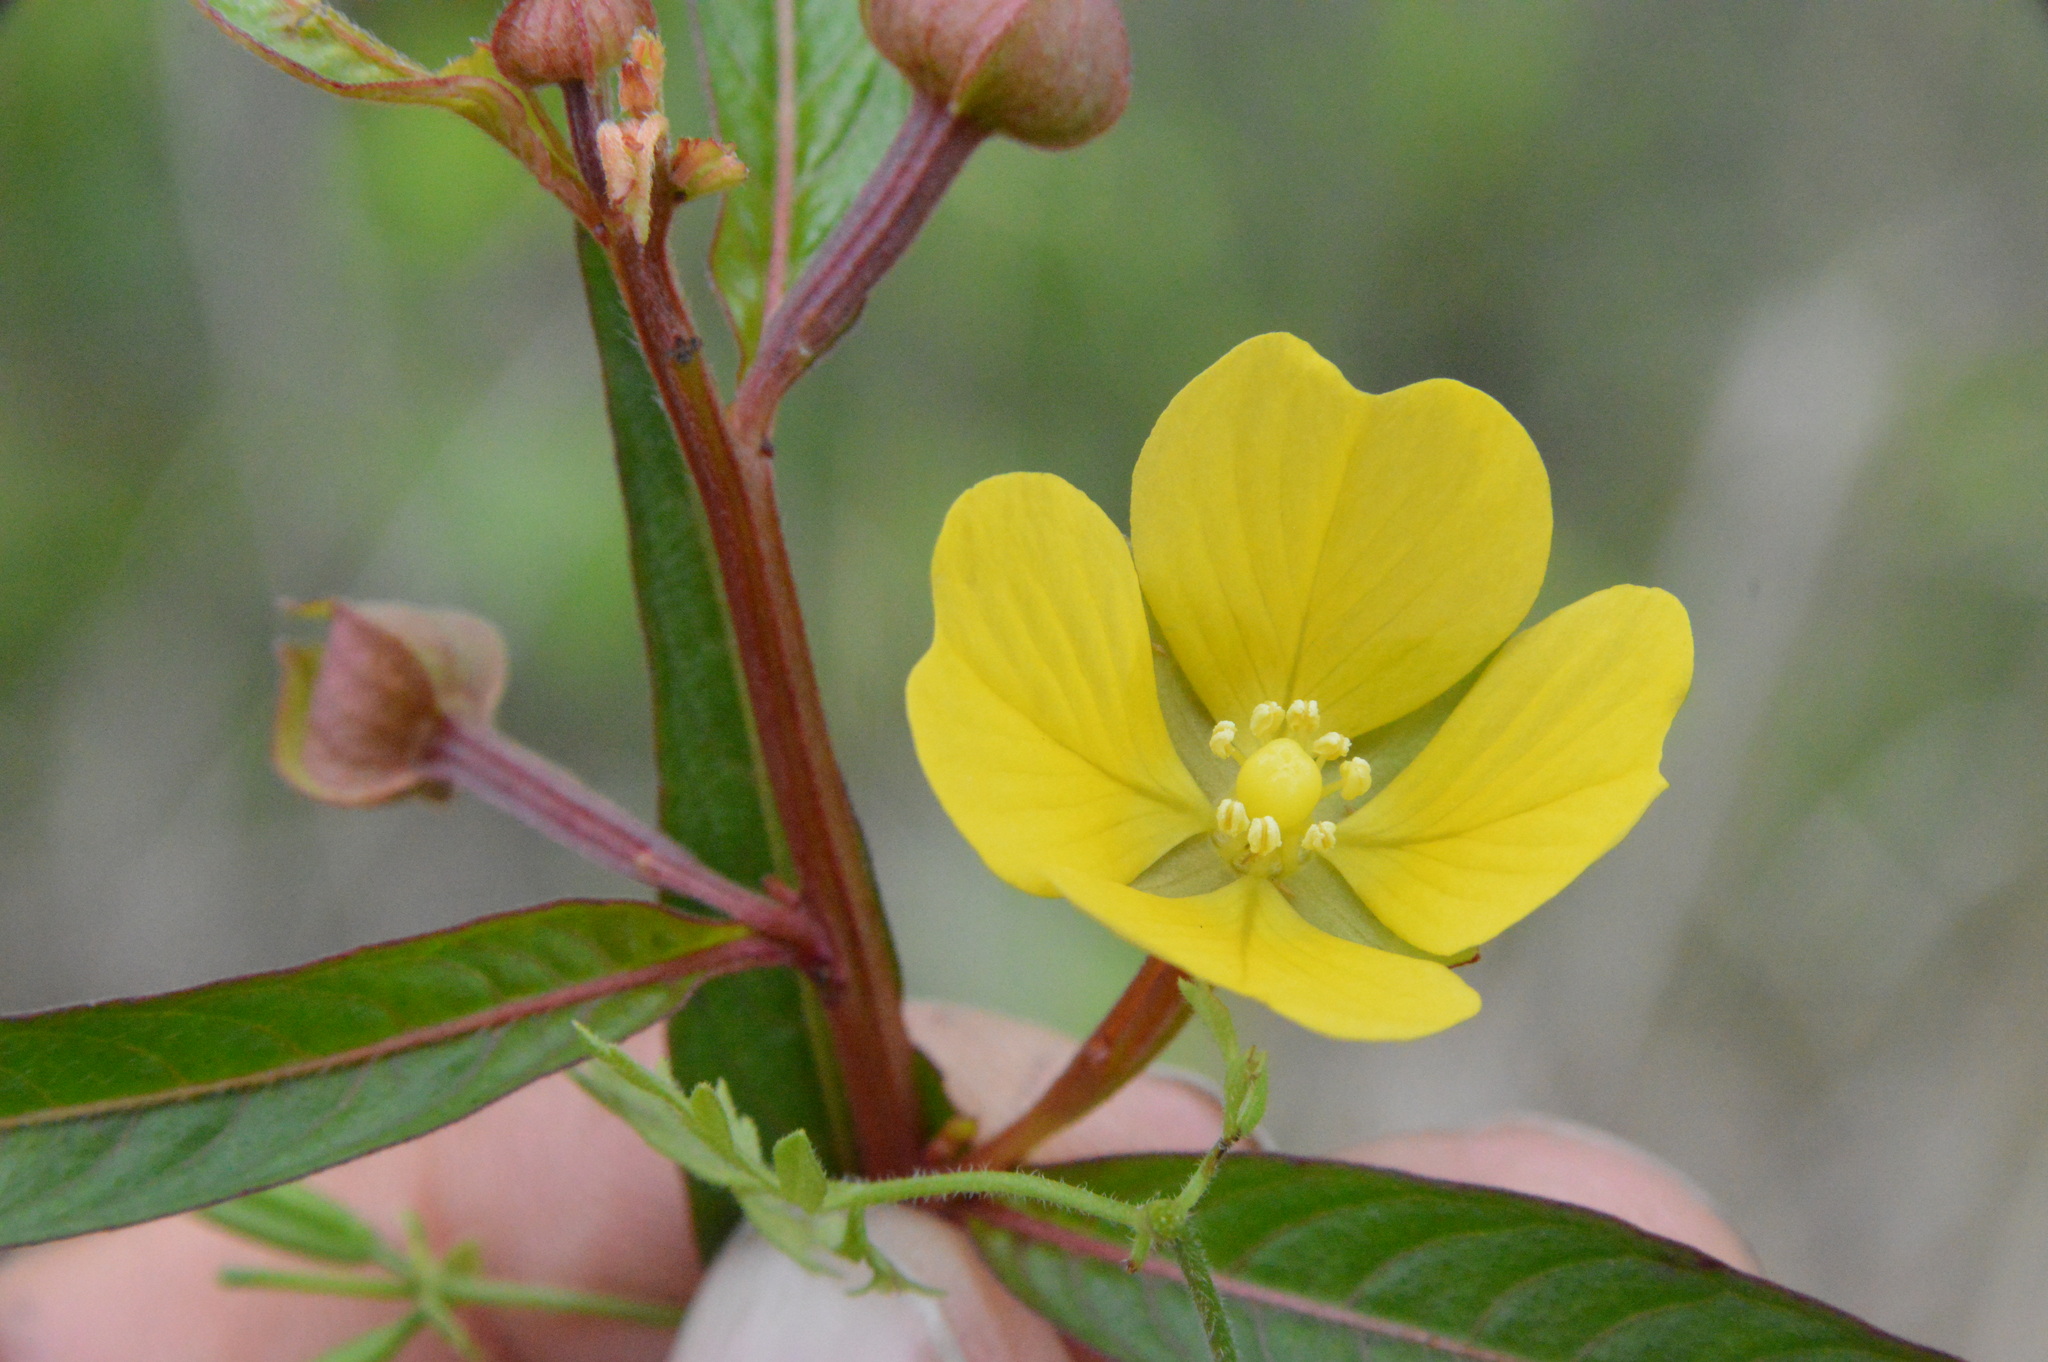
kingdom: Plantae
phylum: Tracheophyta
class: Magnoliopsida
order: Myrtales
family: Onagraceae
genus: Ludwigia
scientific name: Ludwigia octovalvis
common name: Water-primrose
